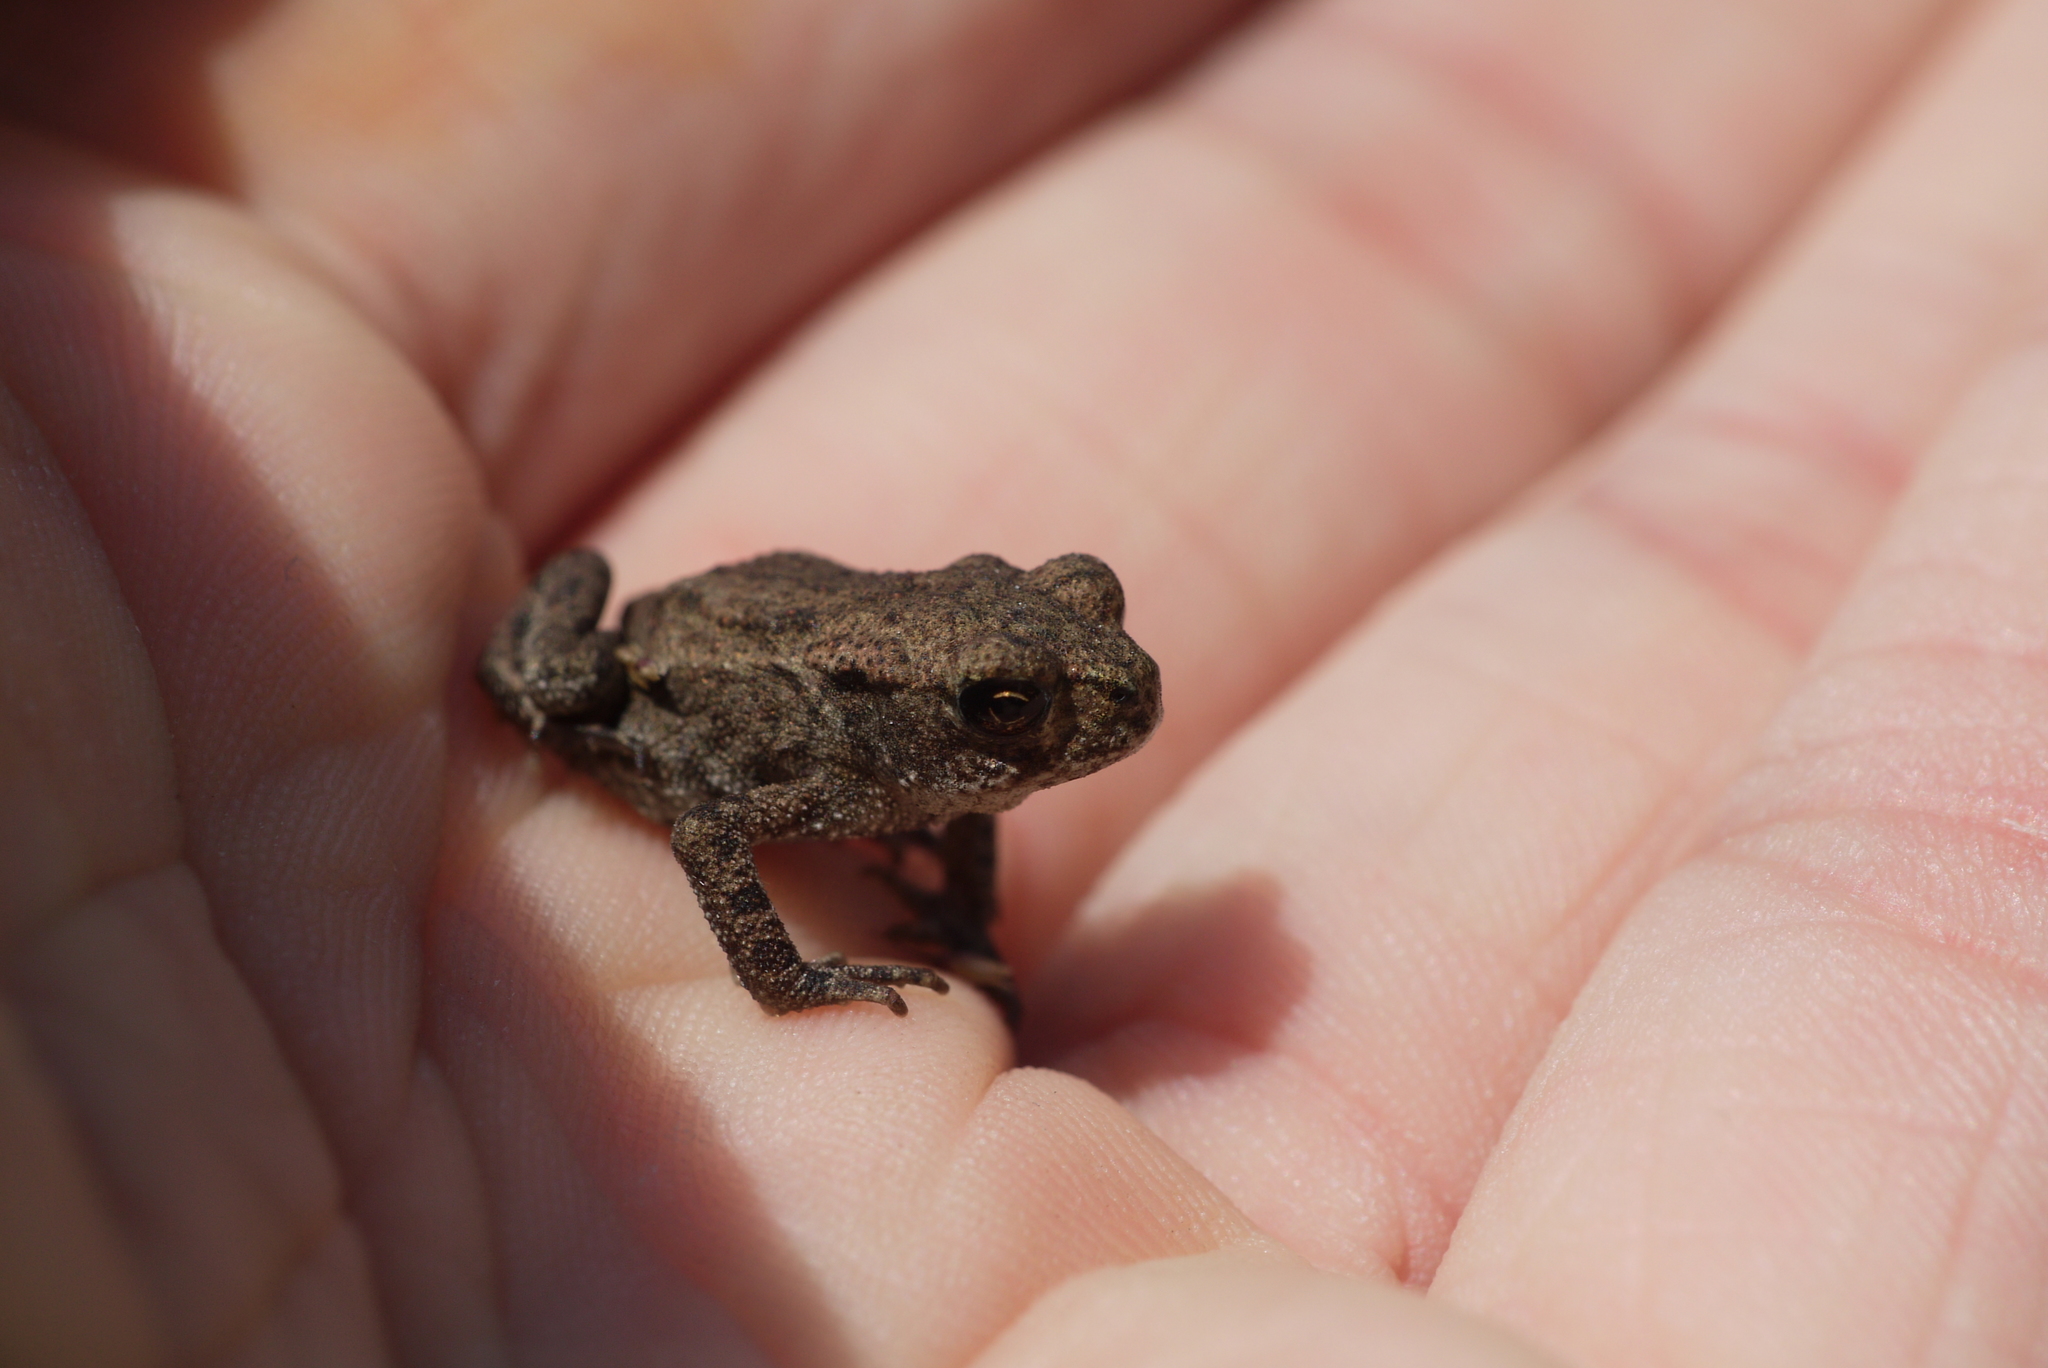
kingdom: Animalia
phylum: Chordata
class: Amphibia
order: Anura
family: Bufonidae
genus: Bufo
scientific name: Bufo bufo
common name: Common toad
